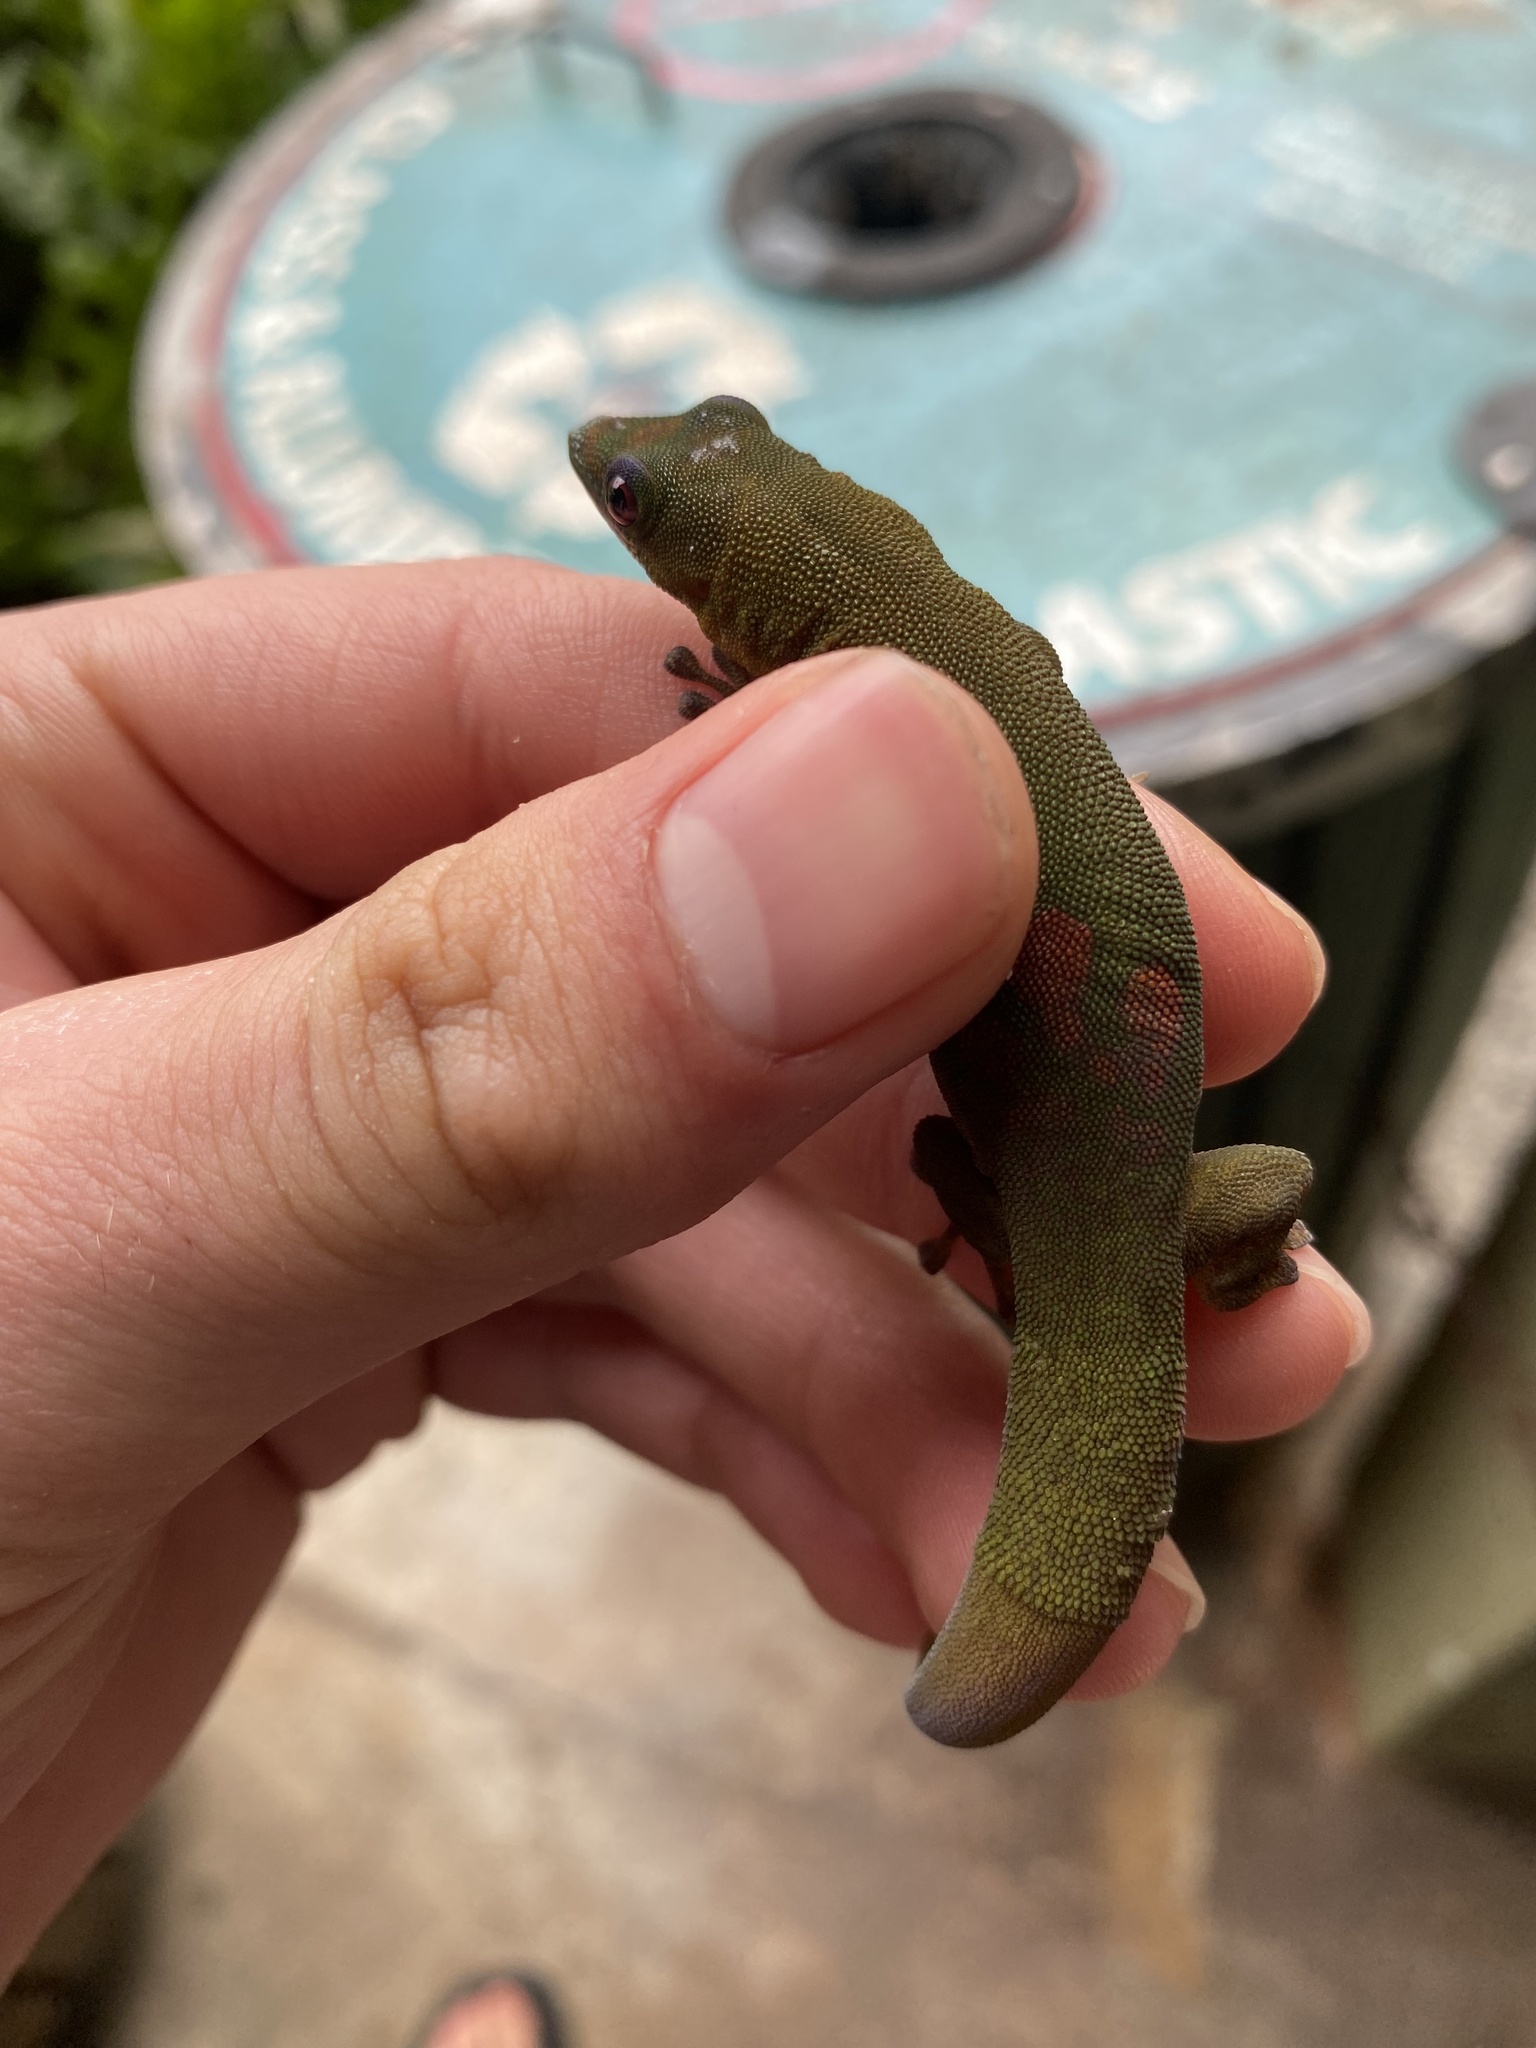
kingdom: Animalia
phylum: Chordata
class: Squamata
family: Gekkonidae
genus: Phelsuma
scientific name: Phelsuma laticauda
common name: Gold dust day gecko
